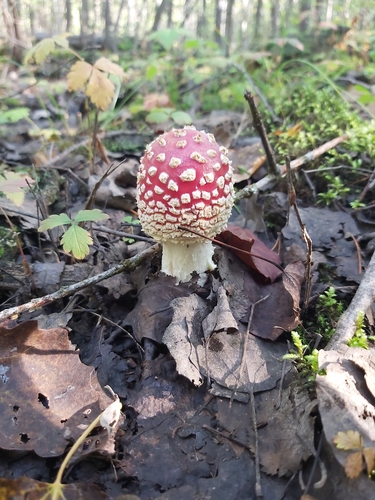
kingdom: Fungi
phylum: Basidiomycota
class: Agaricomycetes
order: Agaricales
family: Amanitaceae
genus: Amanita
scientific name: Amanita muscaria
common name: Fly agaric
